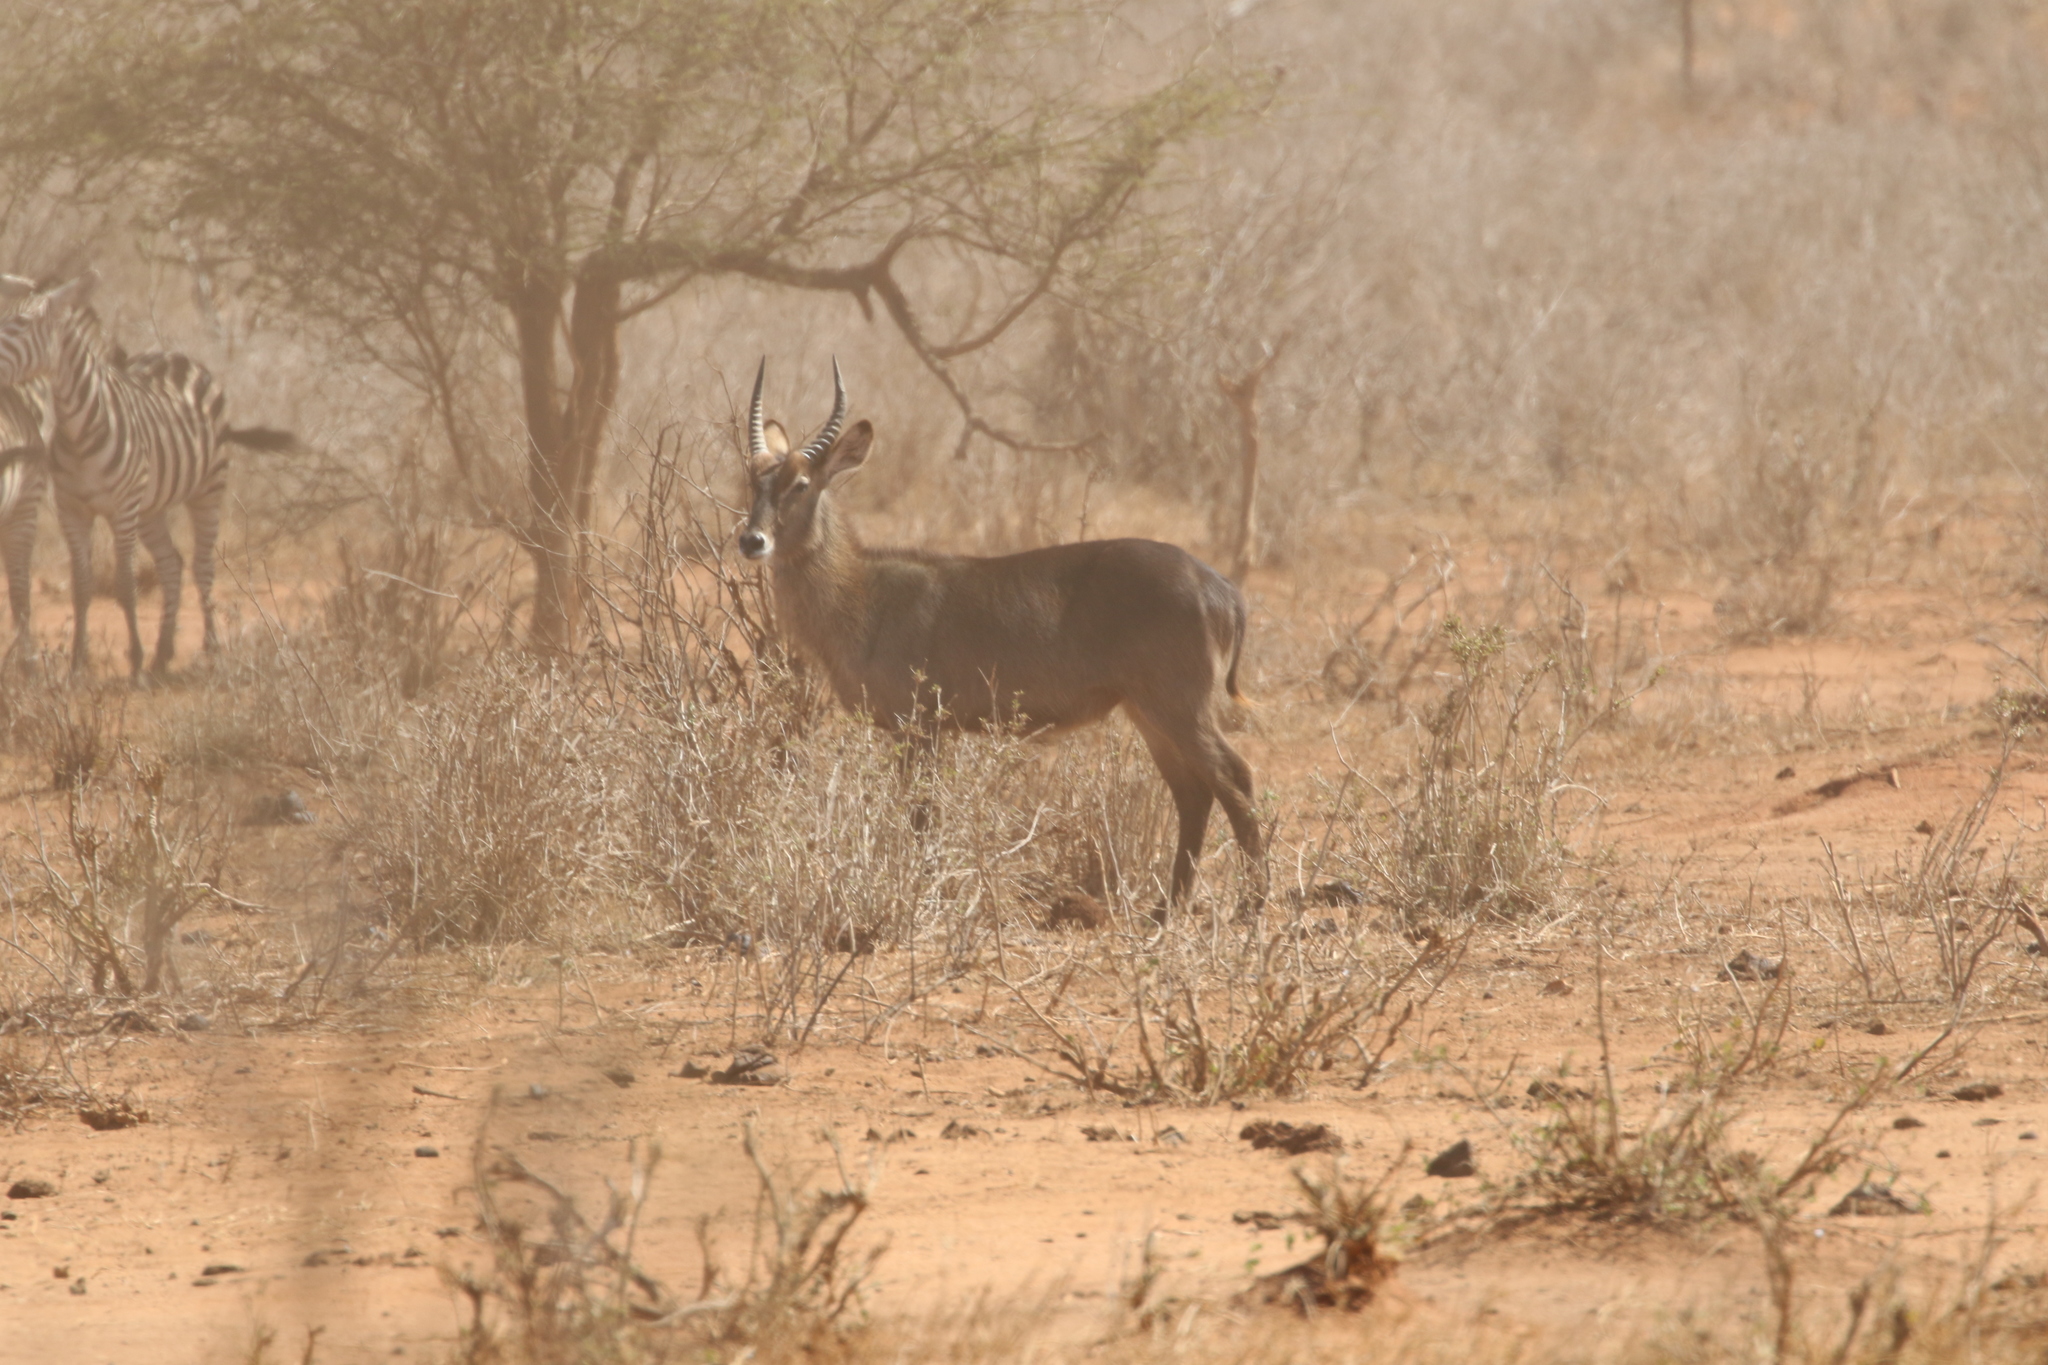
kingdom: Animalia
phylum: Chordata
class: Mammalia
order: Artiodactyla
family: Bovidae
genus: Kobus
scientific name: Kobus ellipsiprymnus
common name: Waterbuck
